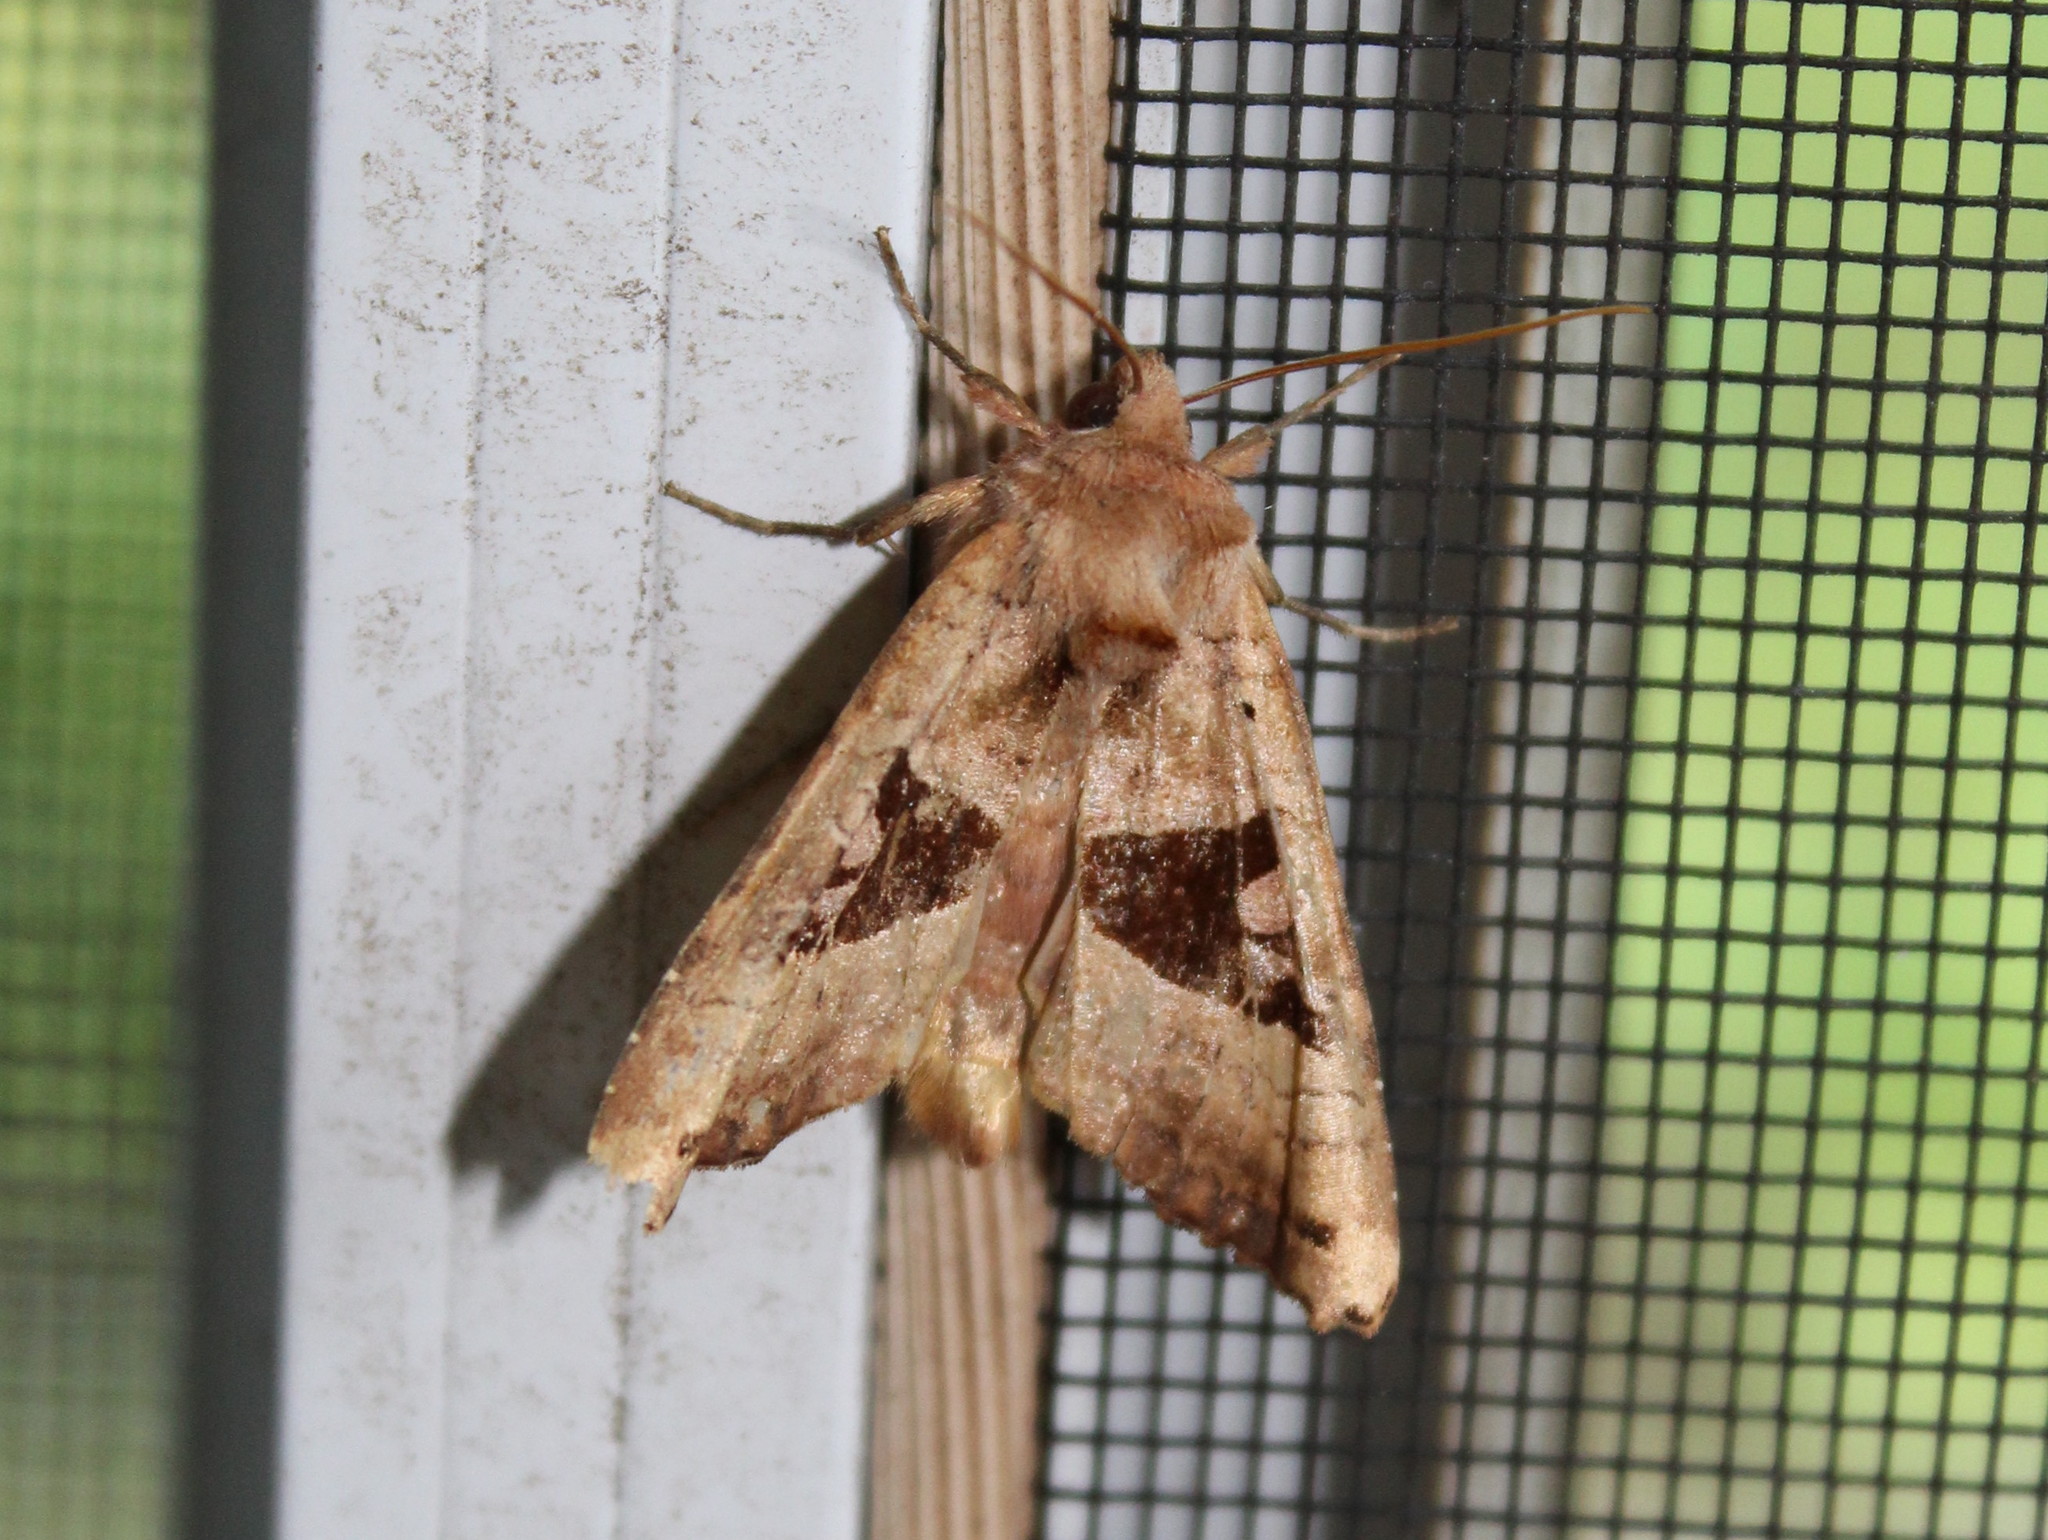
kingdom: Animalia
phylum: Arthropoda
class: Insecta
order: Lepidoptera
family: Noctuidae
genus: Phlogophora
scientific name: Phlogophora periculosa
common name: Brown angle shades
